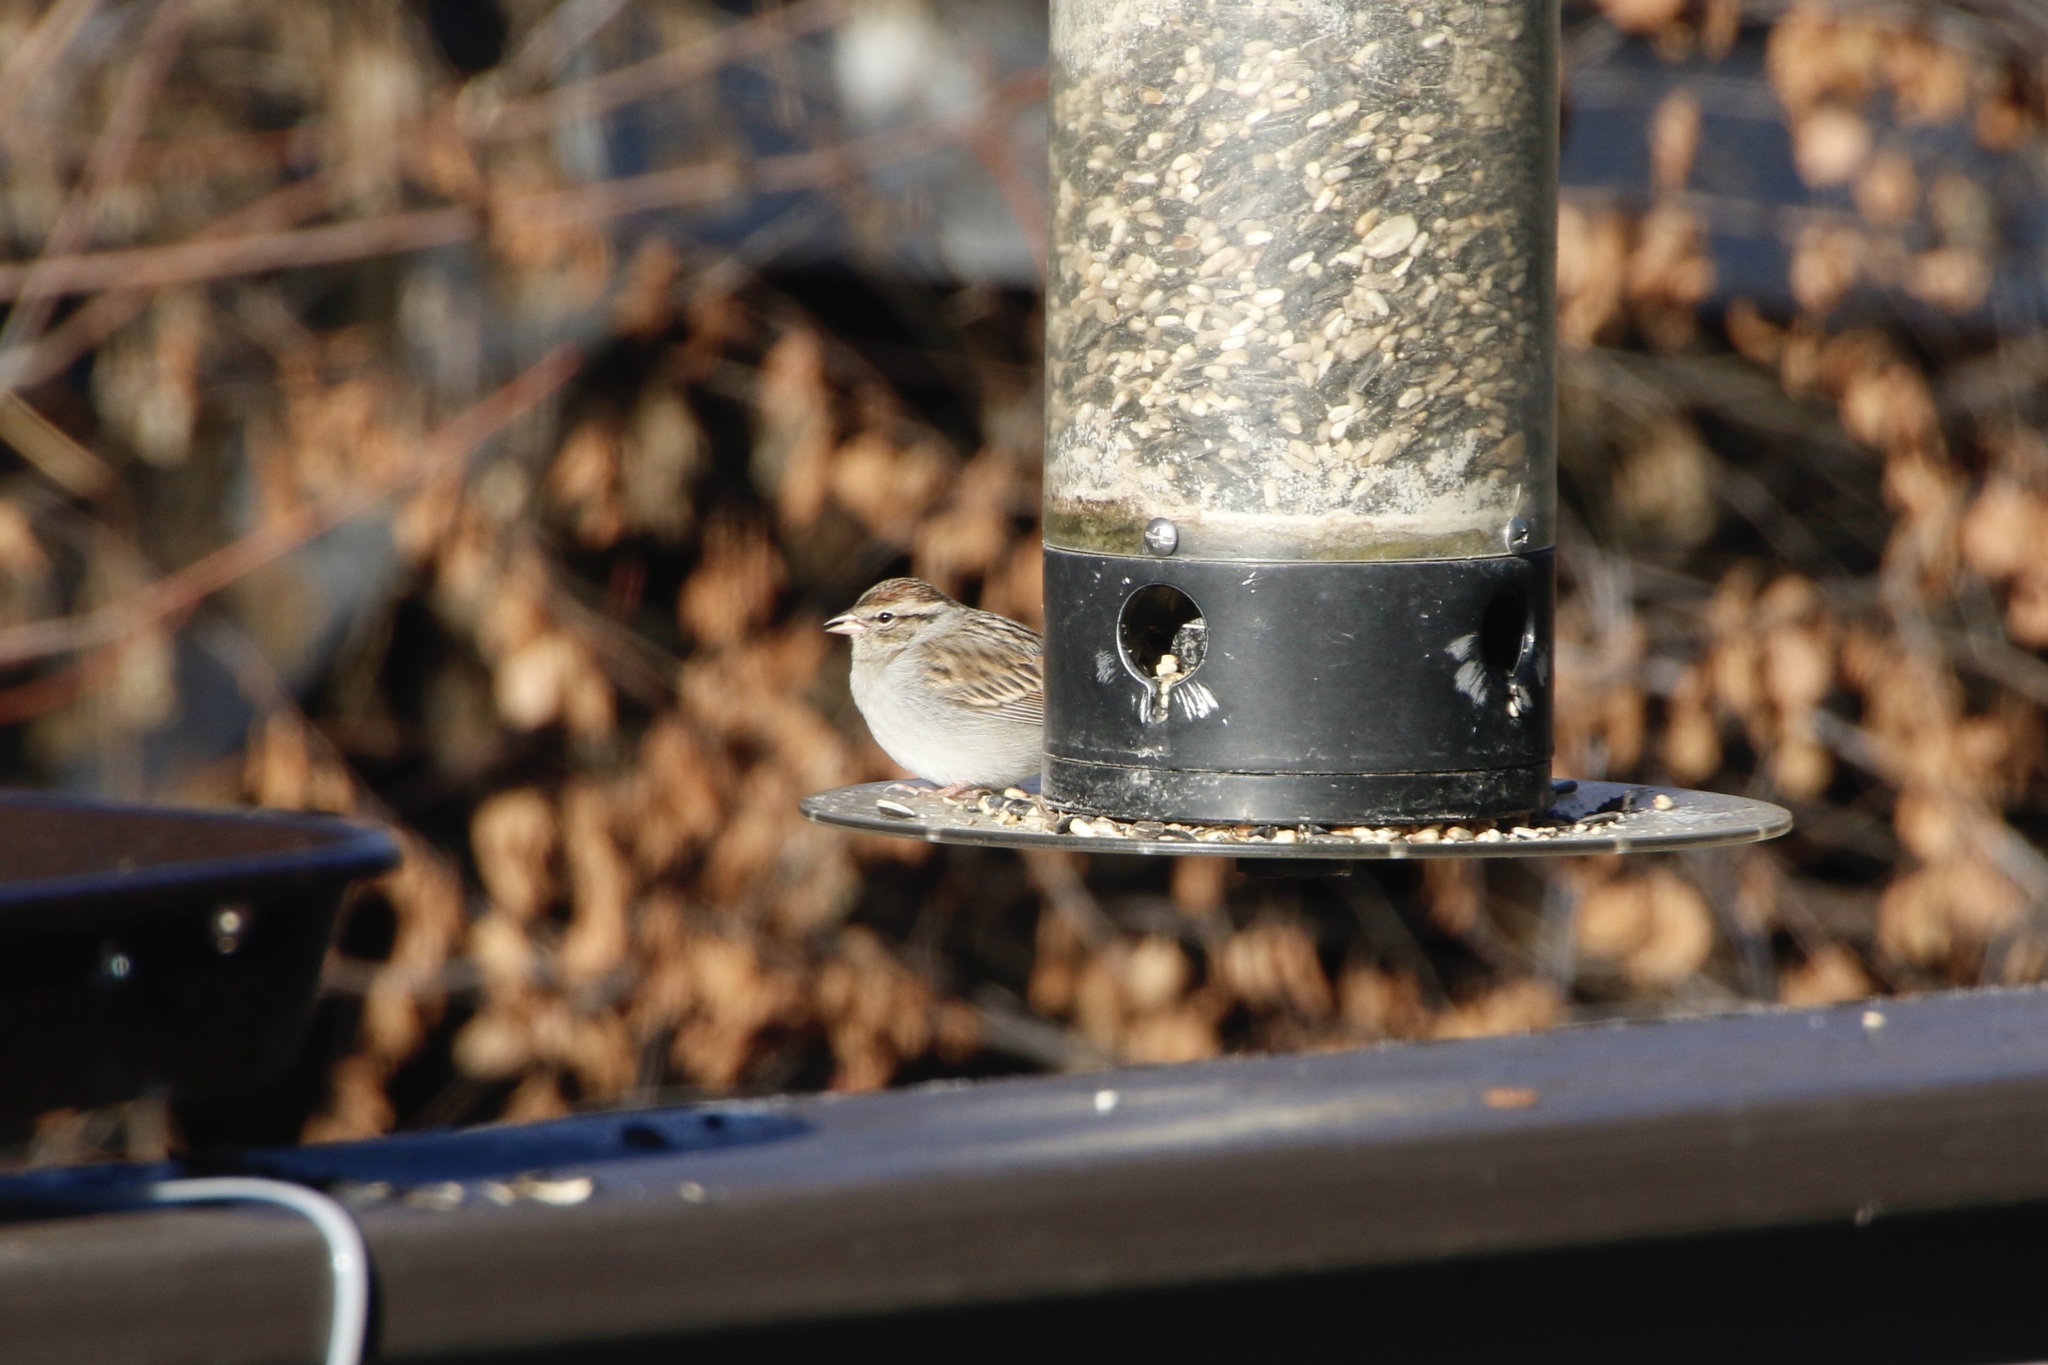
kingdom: Animalia
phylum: Chordata
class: Aves
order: Passeriformes
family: Passerellidae
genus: Spizella
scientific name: Spizella passerina
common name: Chipping sparrow
